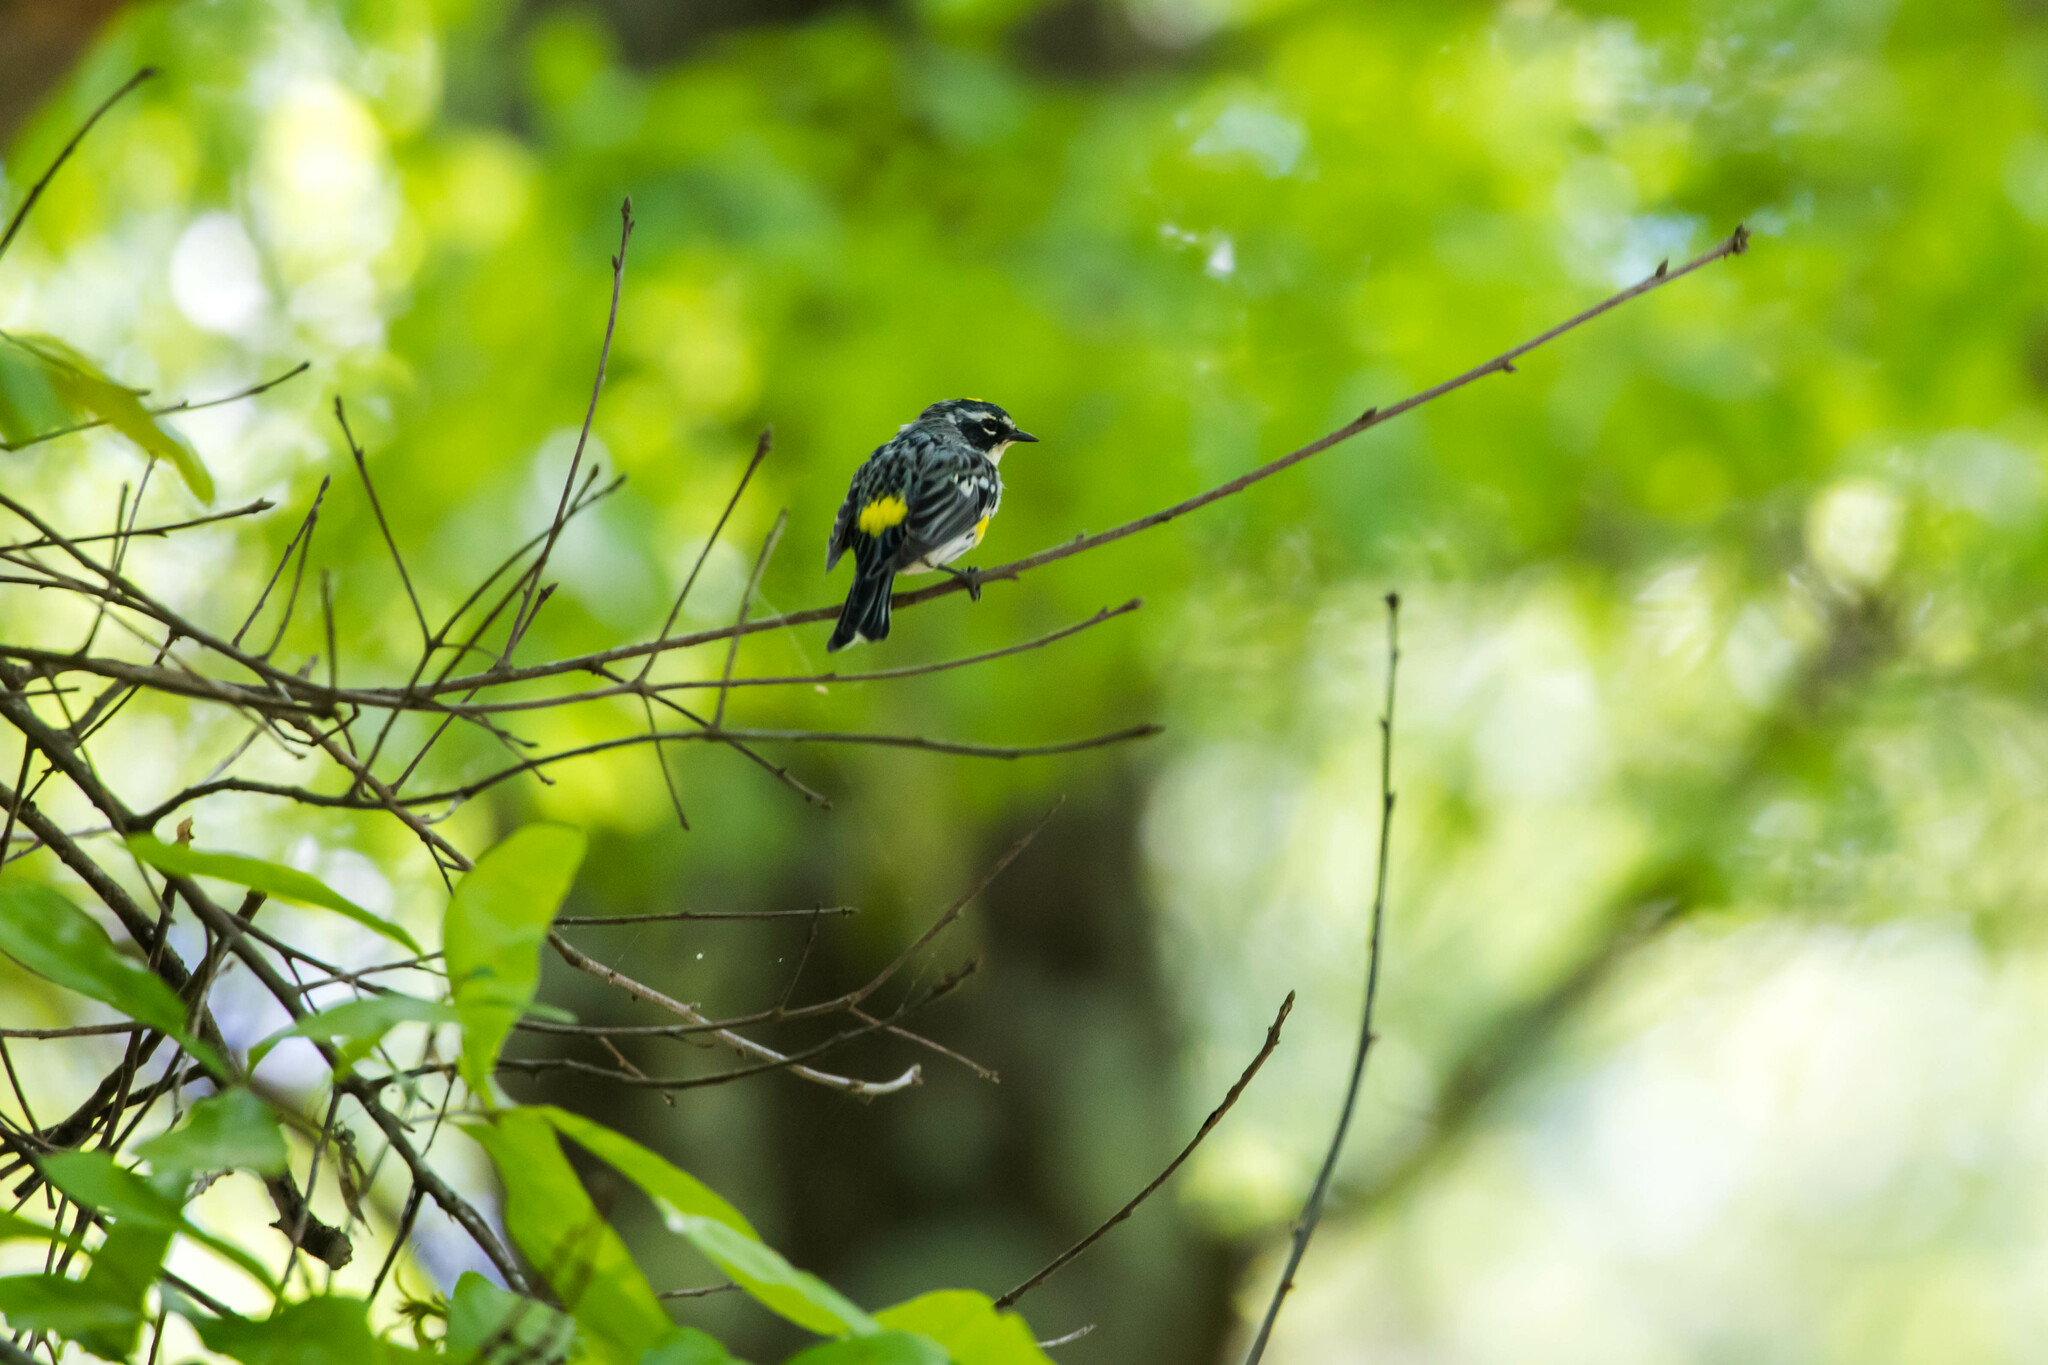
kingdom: Animalia
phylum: Chordata
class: Aves
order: Passeriformes
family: Parulidae
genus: Setophaga
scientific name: Setophaga coronata
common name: Myrtle warbler
